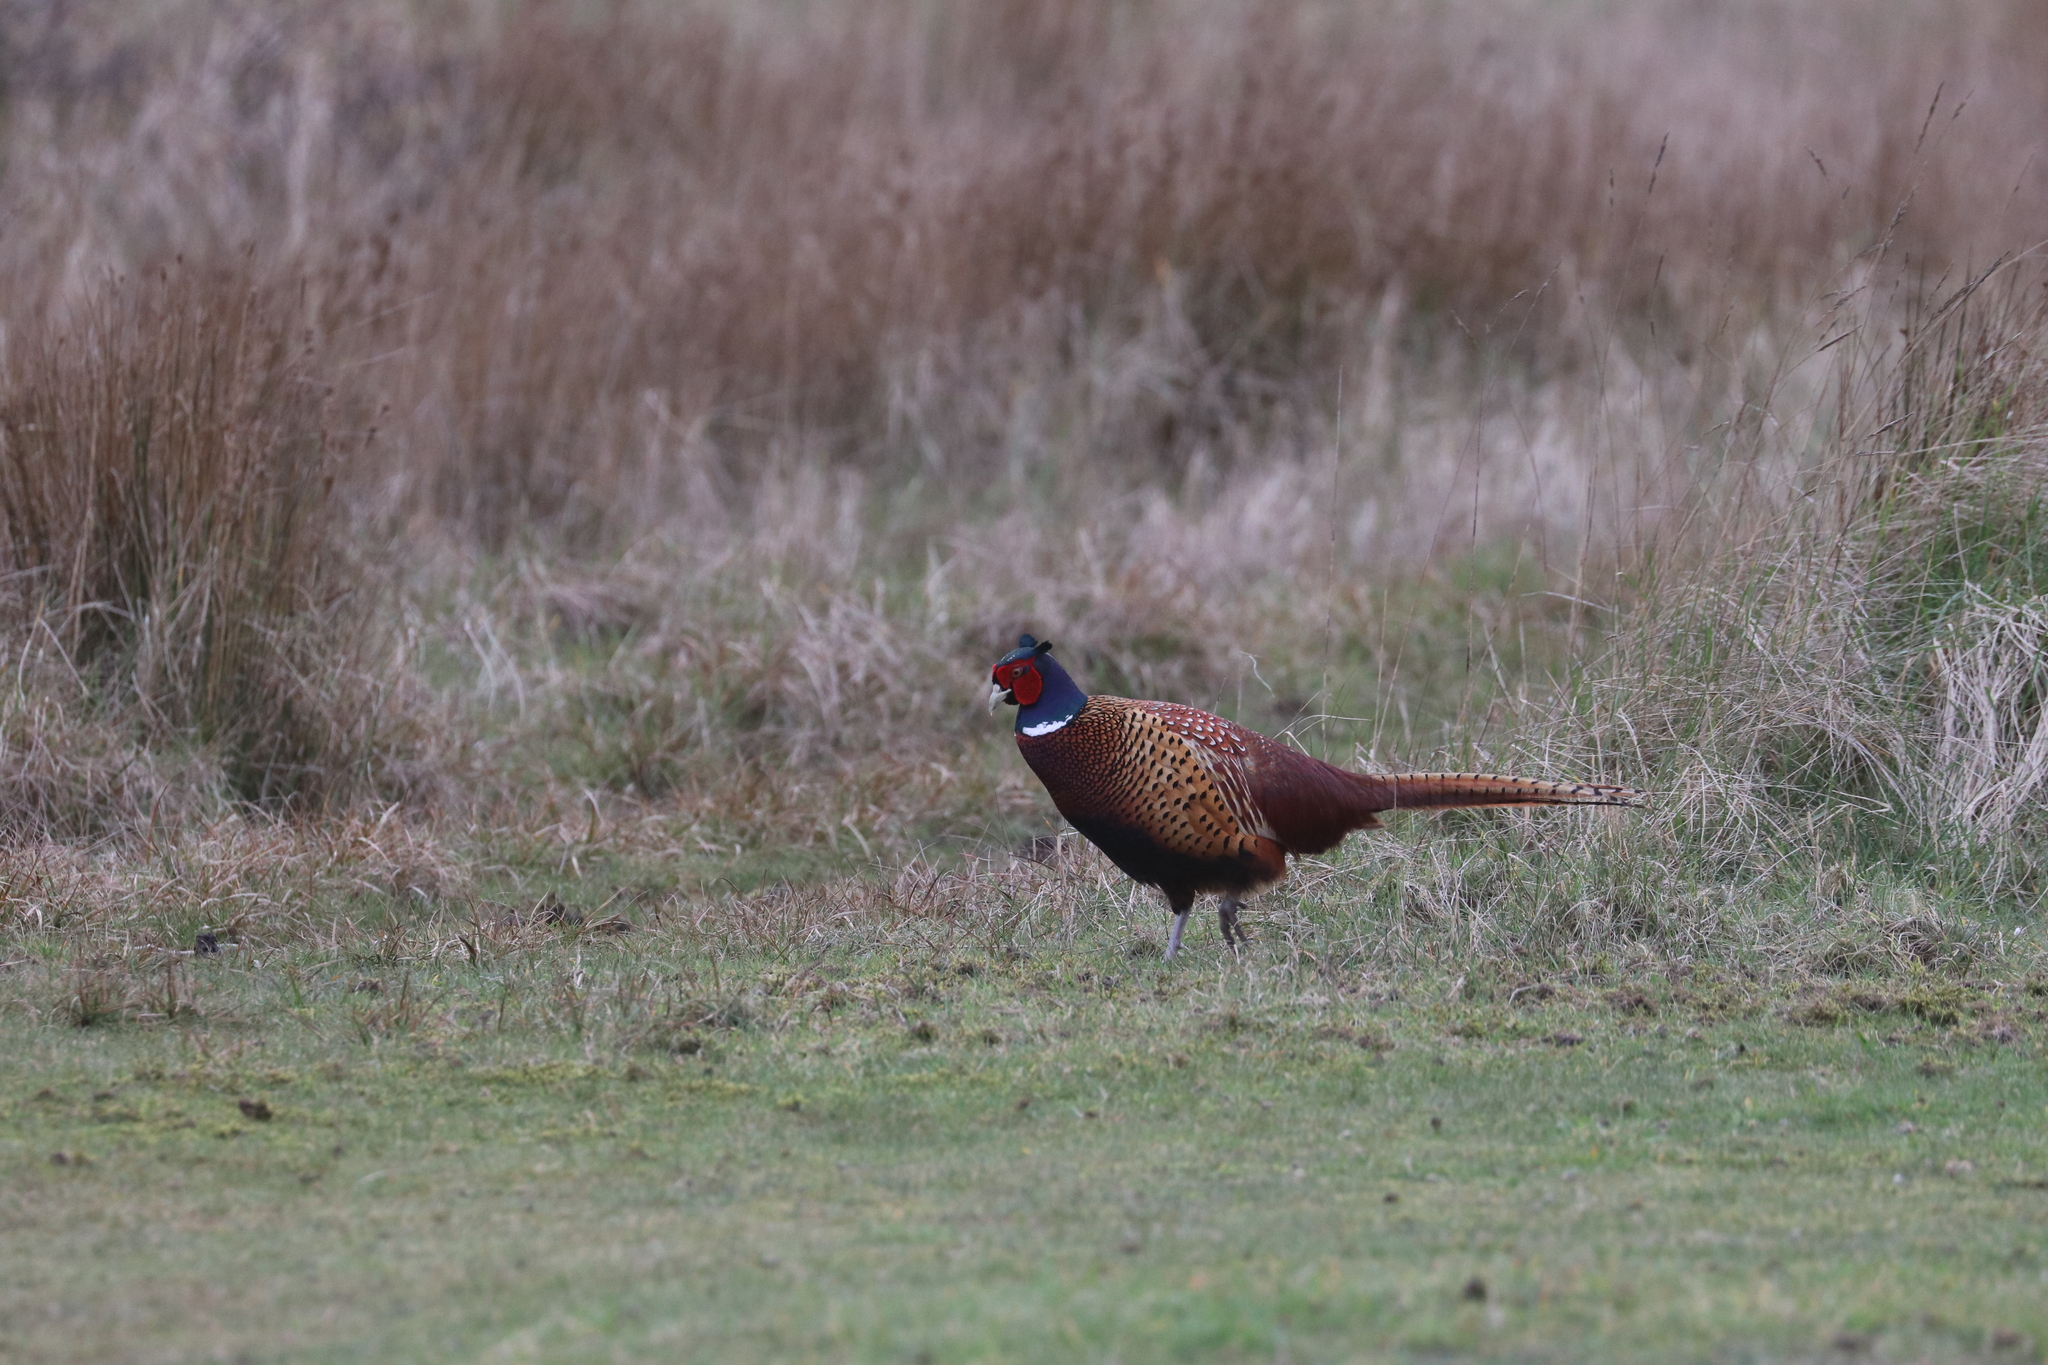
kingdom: Animalia
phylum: Chordata
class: Aves
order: Galliformes
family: Phasianidae
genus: Phasianus
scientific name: Phasianus colchicus
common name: Common pheasant
